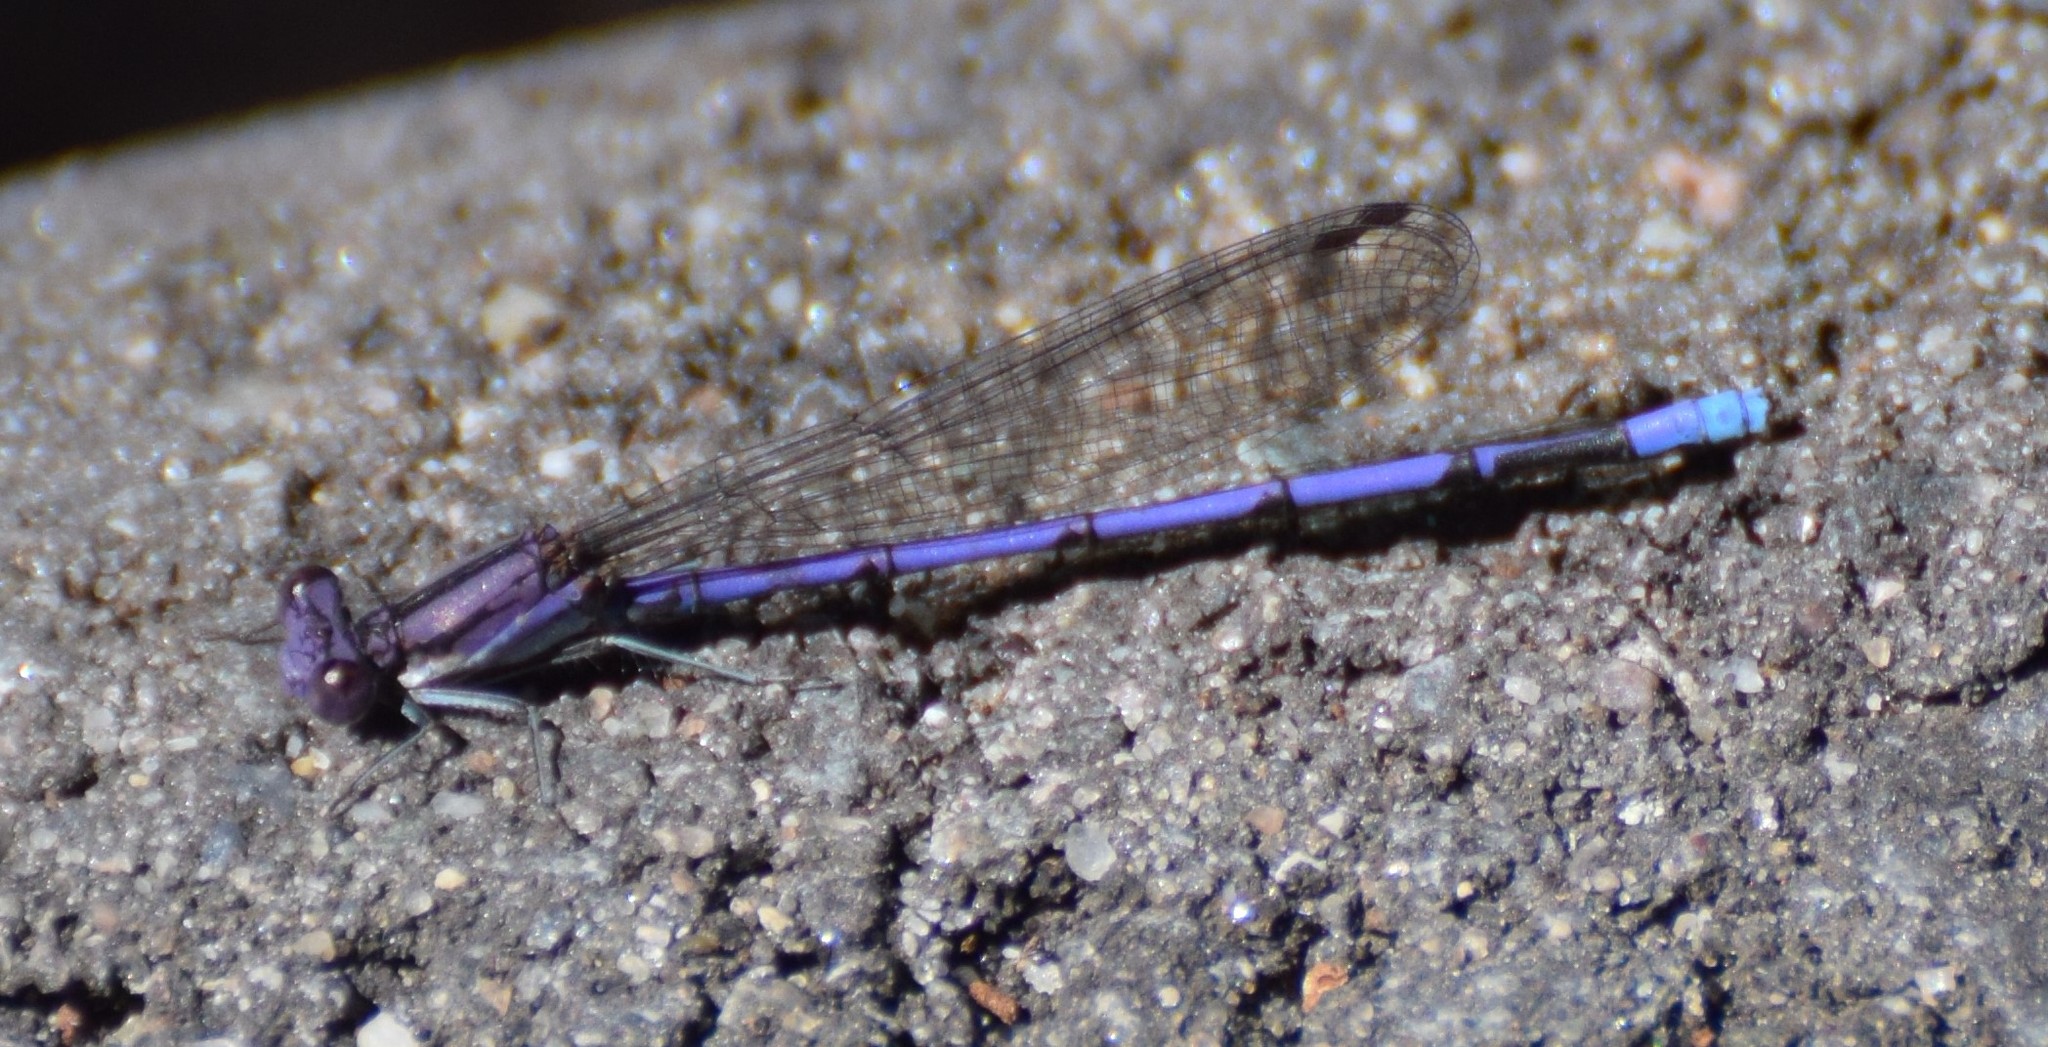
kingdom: Animalia
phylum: Arthropoda
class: Insecta
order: Odonata
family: Coenagrionidae
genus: Argia
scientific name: Argia fumipennis
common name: Variable dancer
